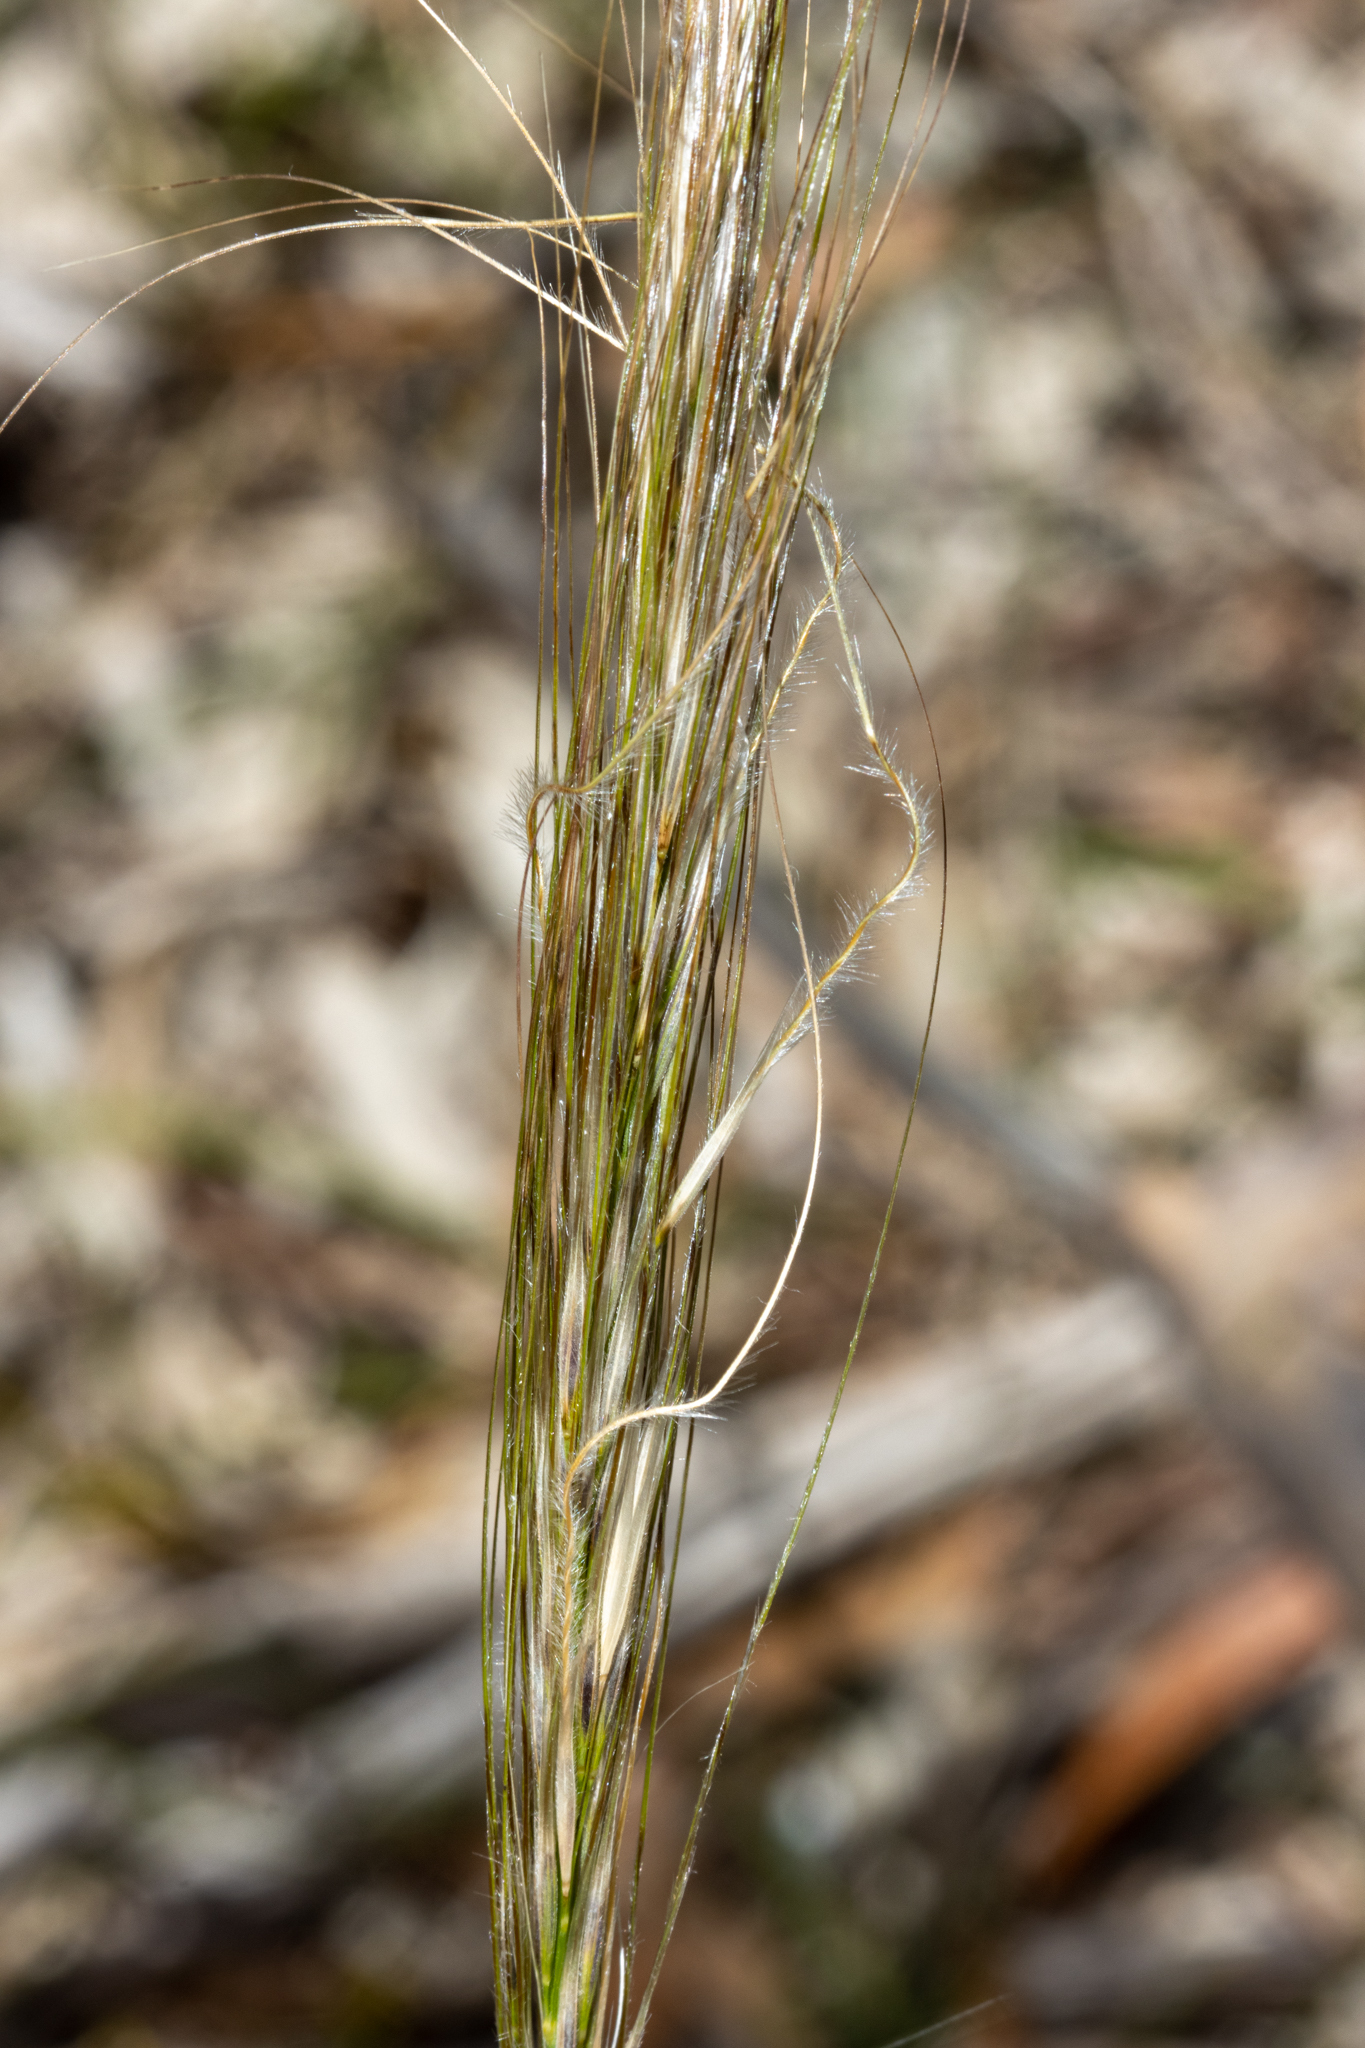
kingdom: Plantae
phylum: Tracheophyta
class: Liliopsida
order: Poales
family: Poaceae
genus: Austrostipa
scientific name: Austrostipa mollis
